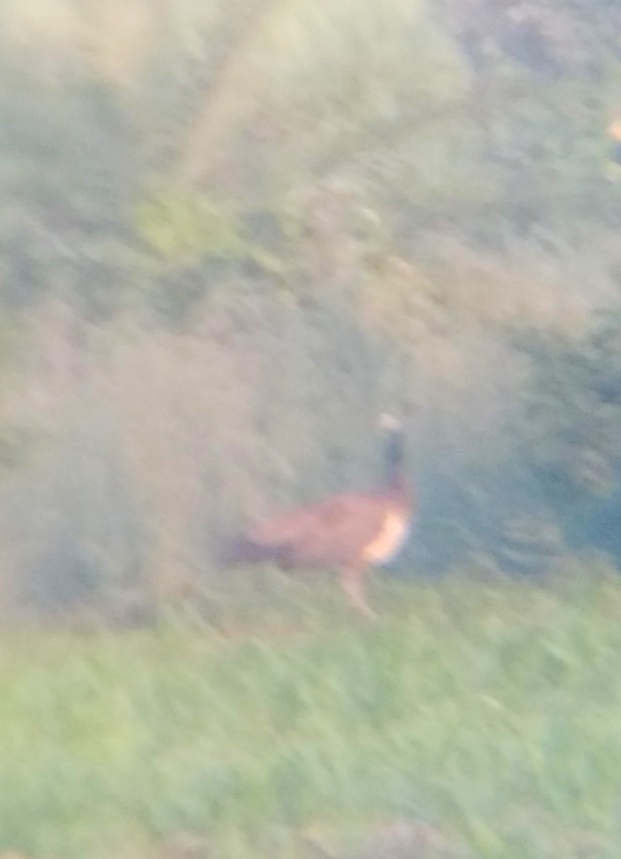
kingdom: Animalia
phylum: Chordata
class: Aves
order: Galliformes
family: Phasianidae
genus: Pavo
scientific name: Pavo cristatus
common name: Indian peafowl
